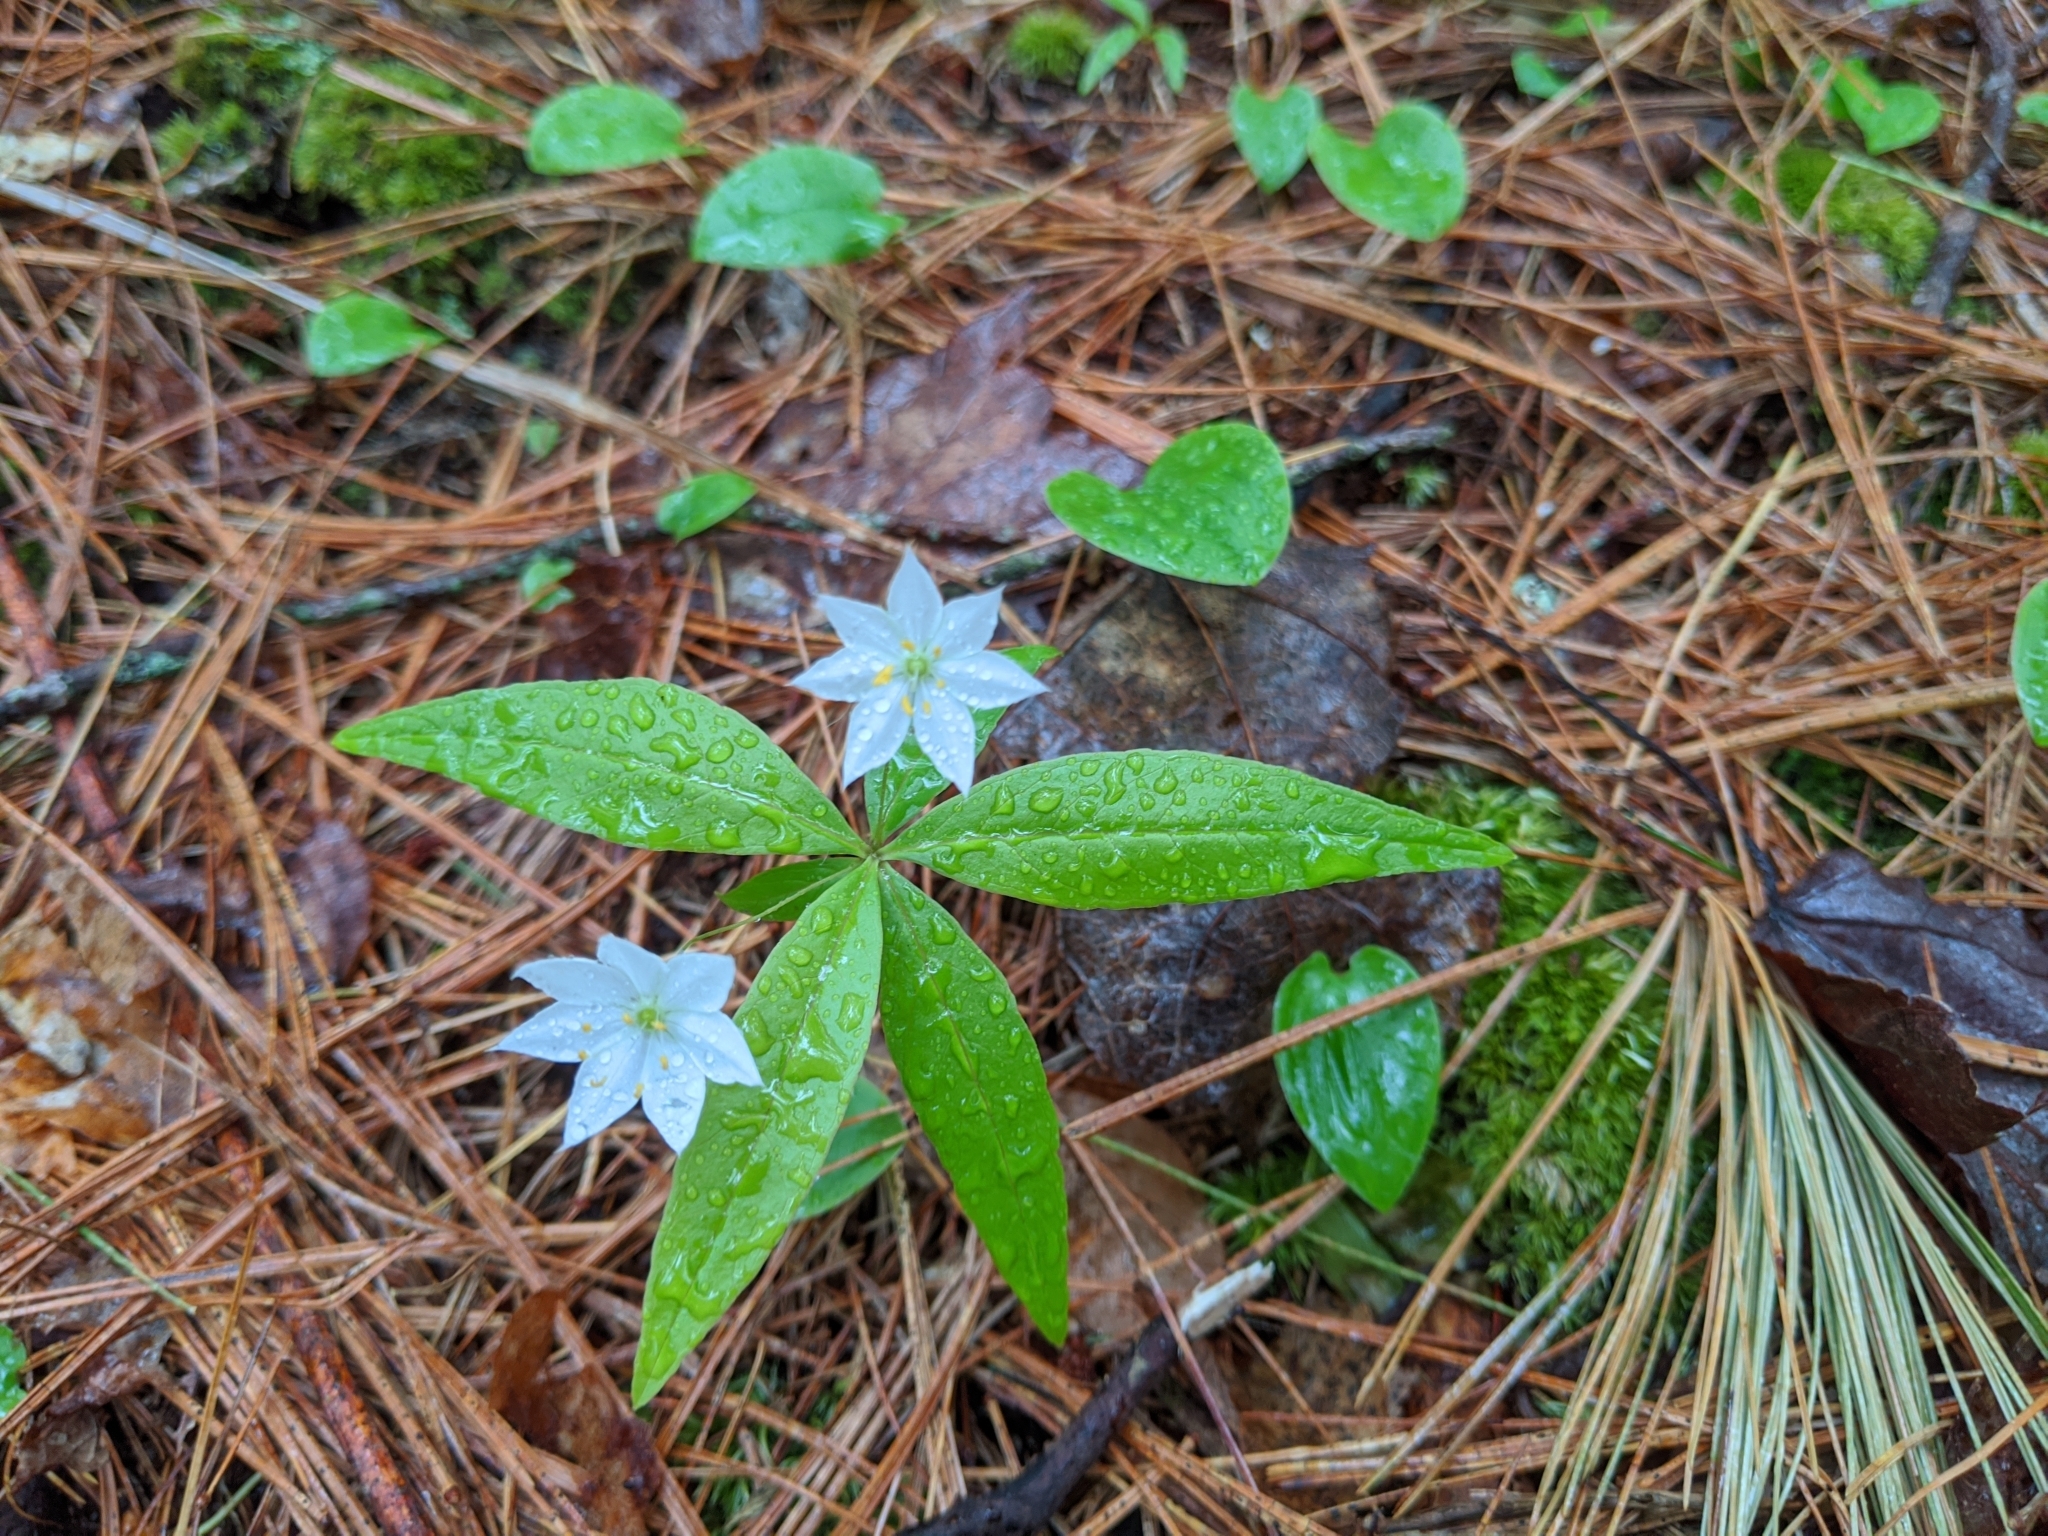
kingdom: Plantae
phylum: Tracheophyta
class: Magnoliopsida
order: Ericales
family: Primulaceae
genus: Lysimachia
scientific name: Lysimachia borealis
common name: American starflower
